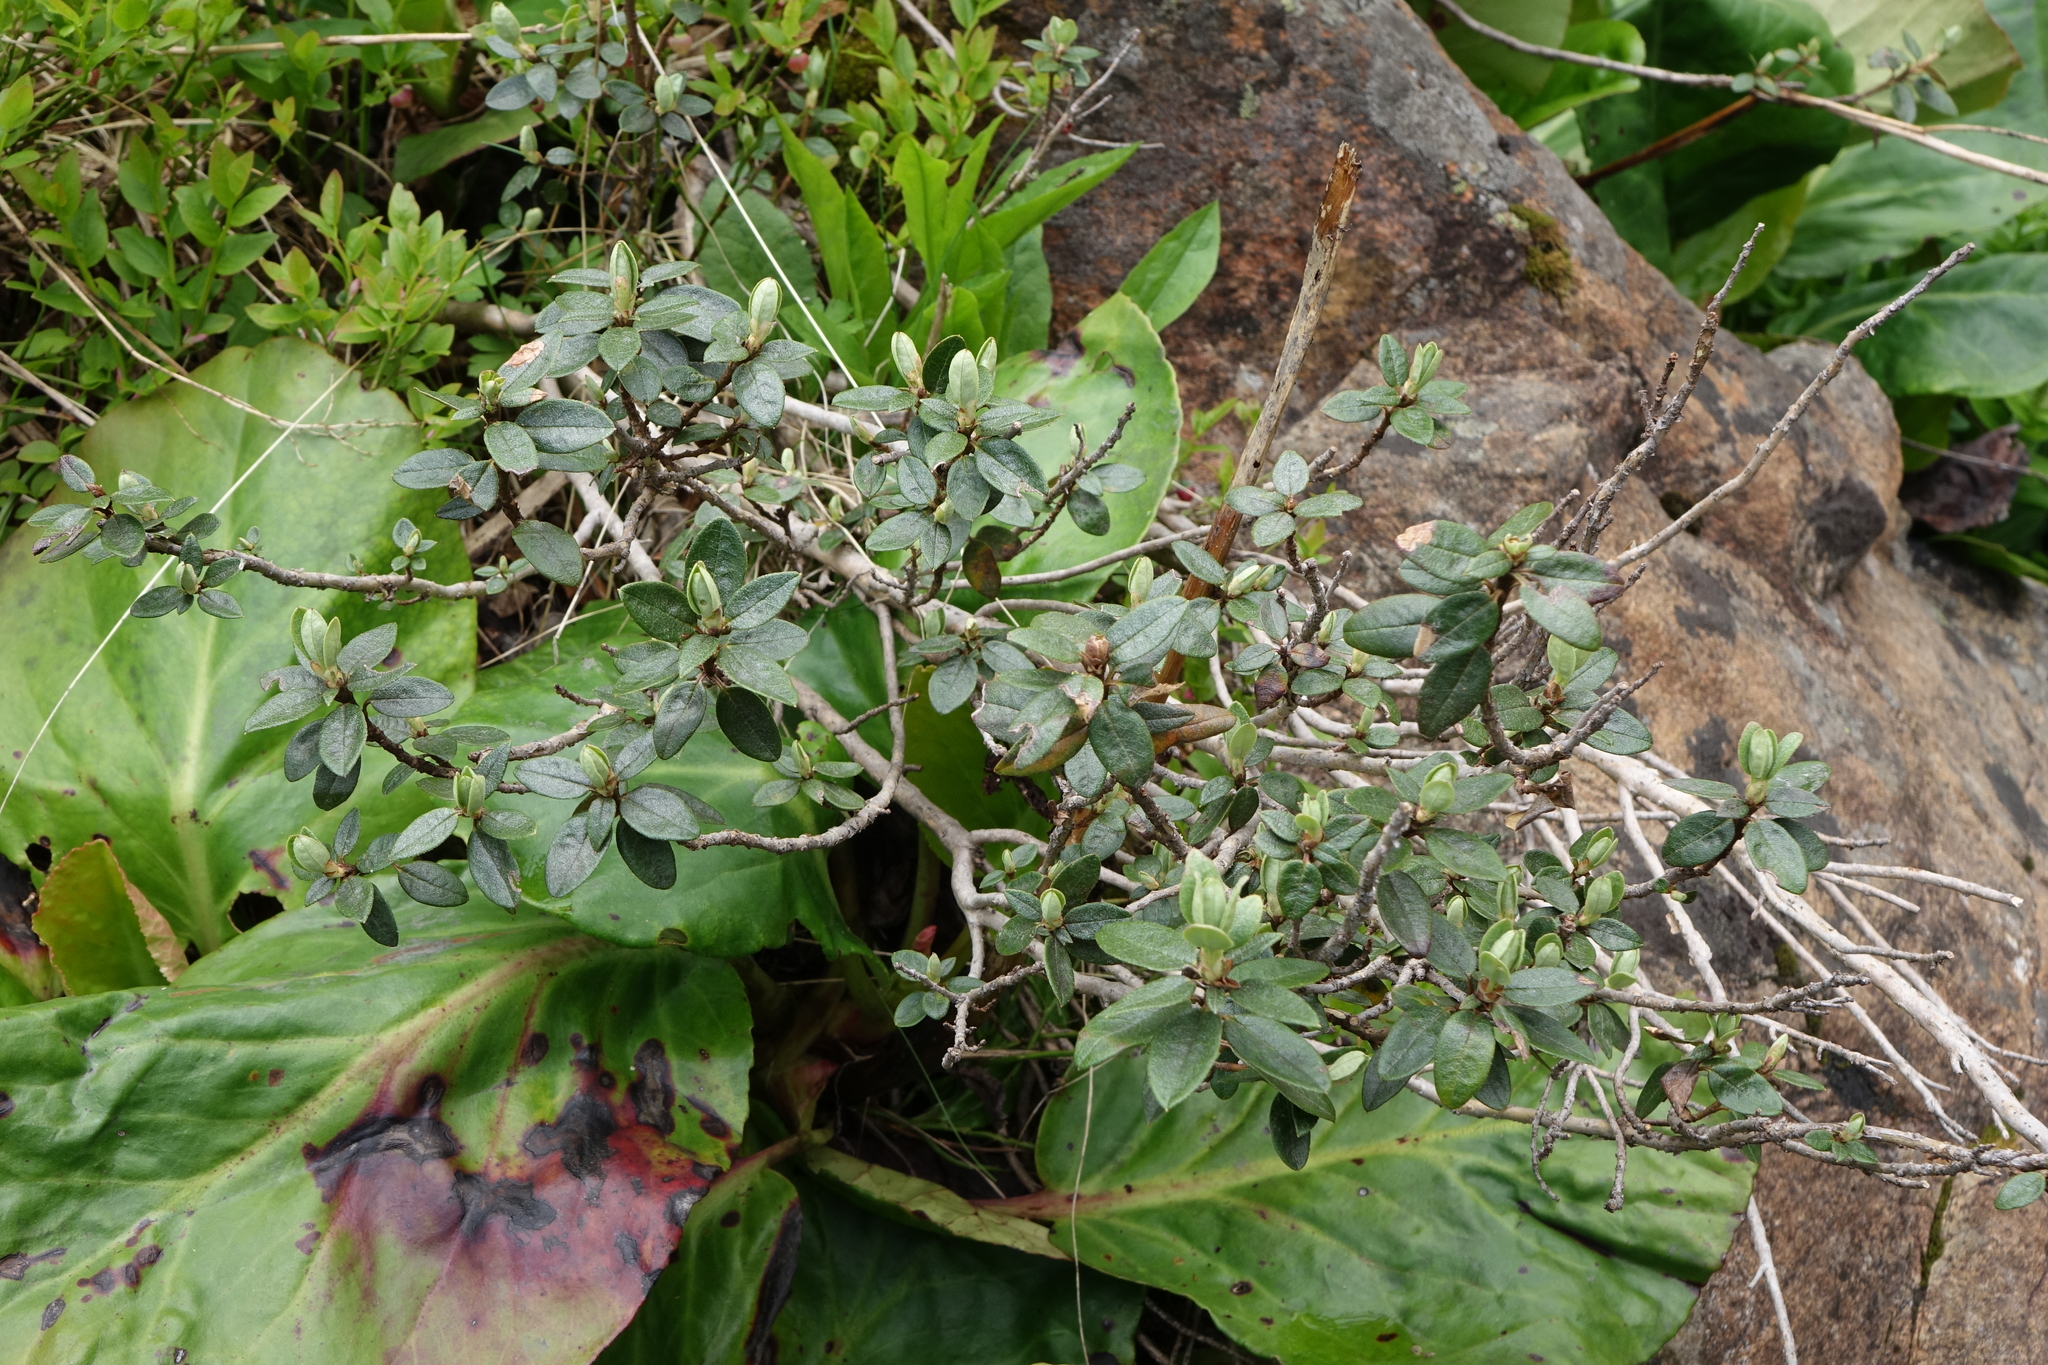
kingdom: Plantae
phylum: Tracheophyta
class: Magnoliopsida
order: Ericales
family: Ericaceae
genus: Rhododendron
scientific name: Rhododendron adamsii
